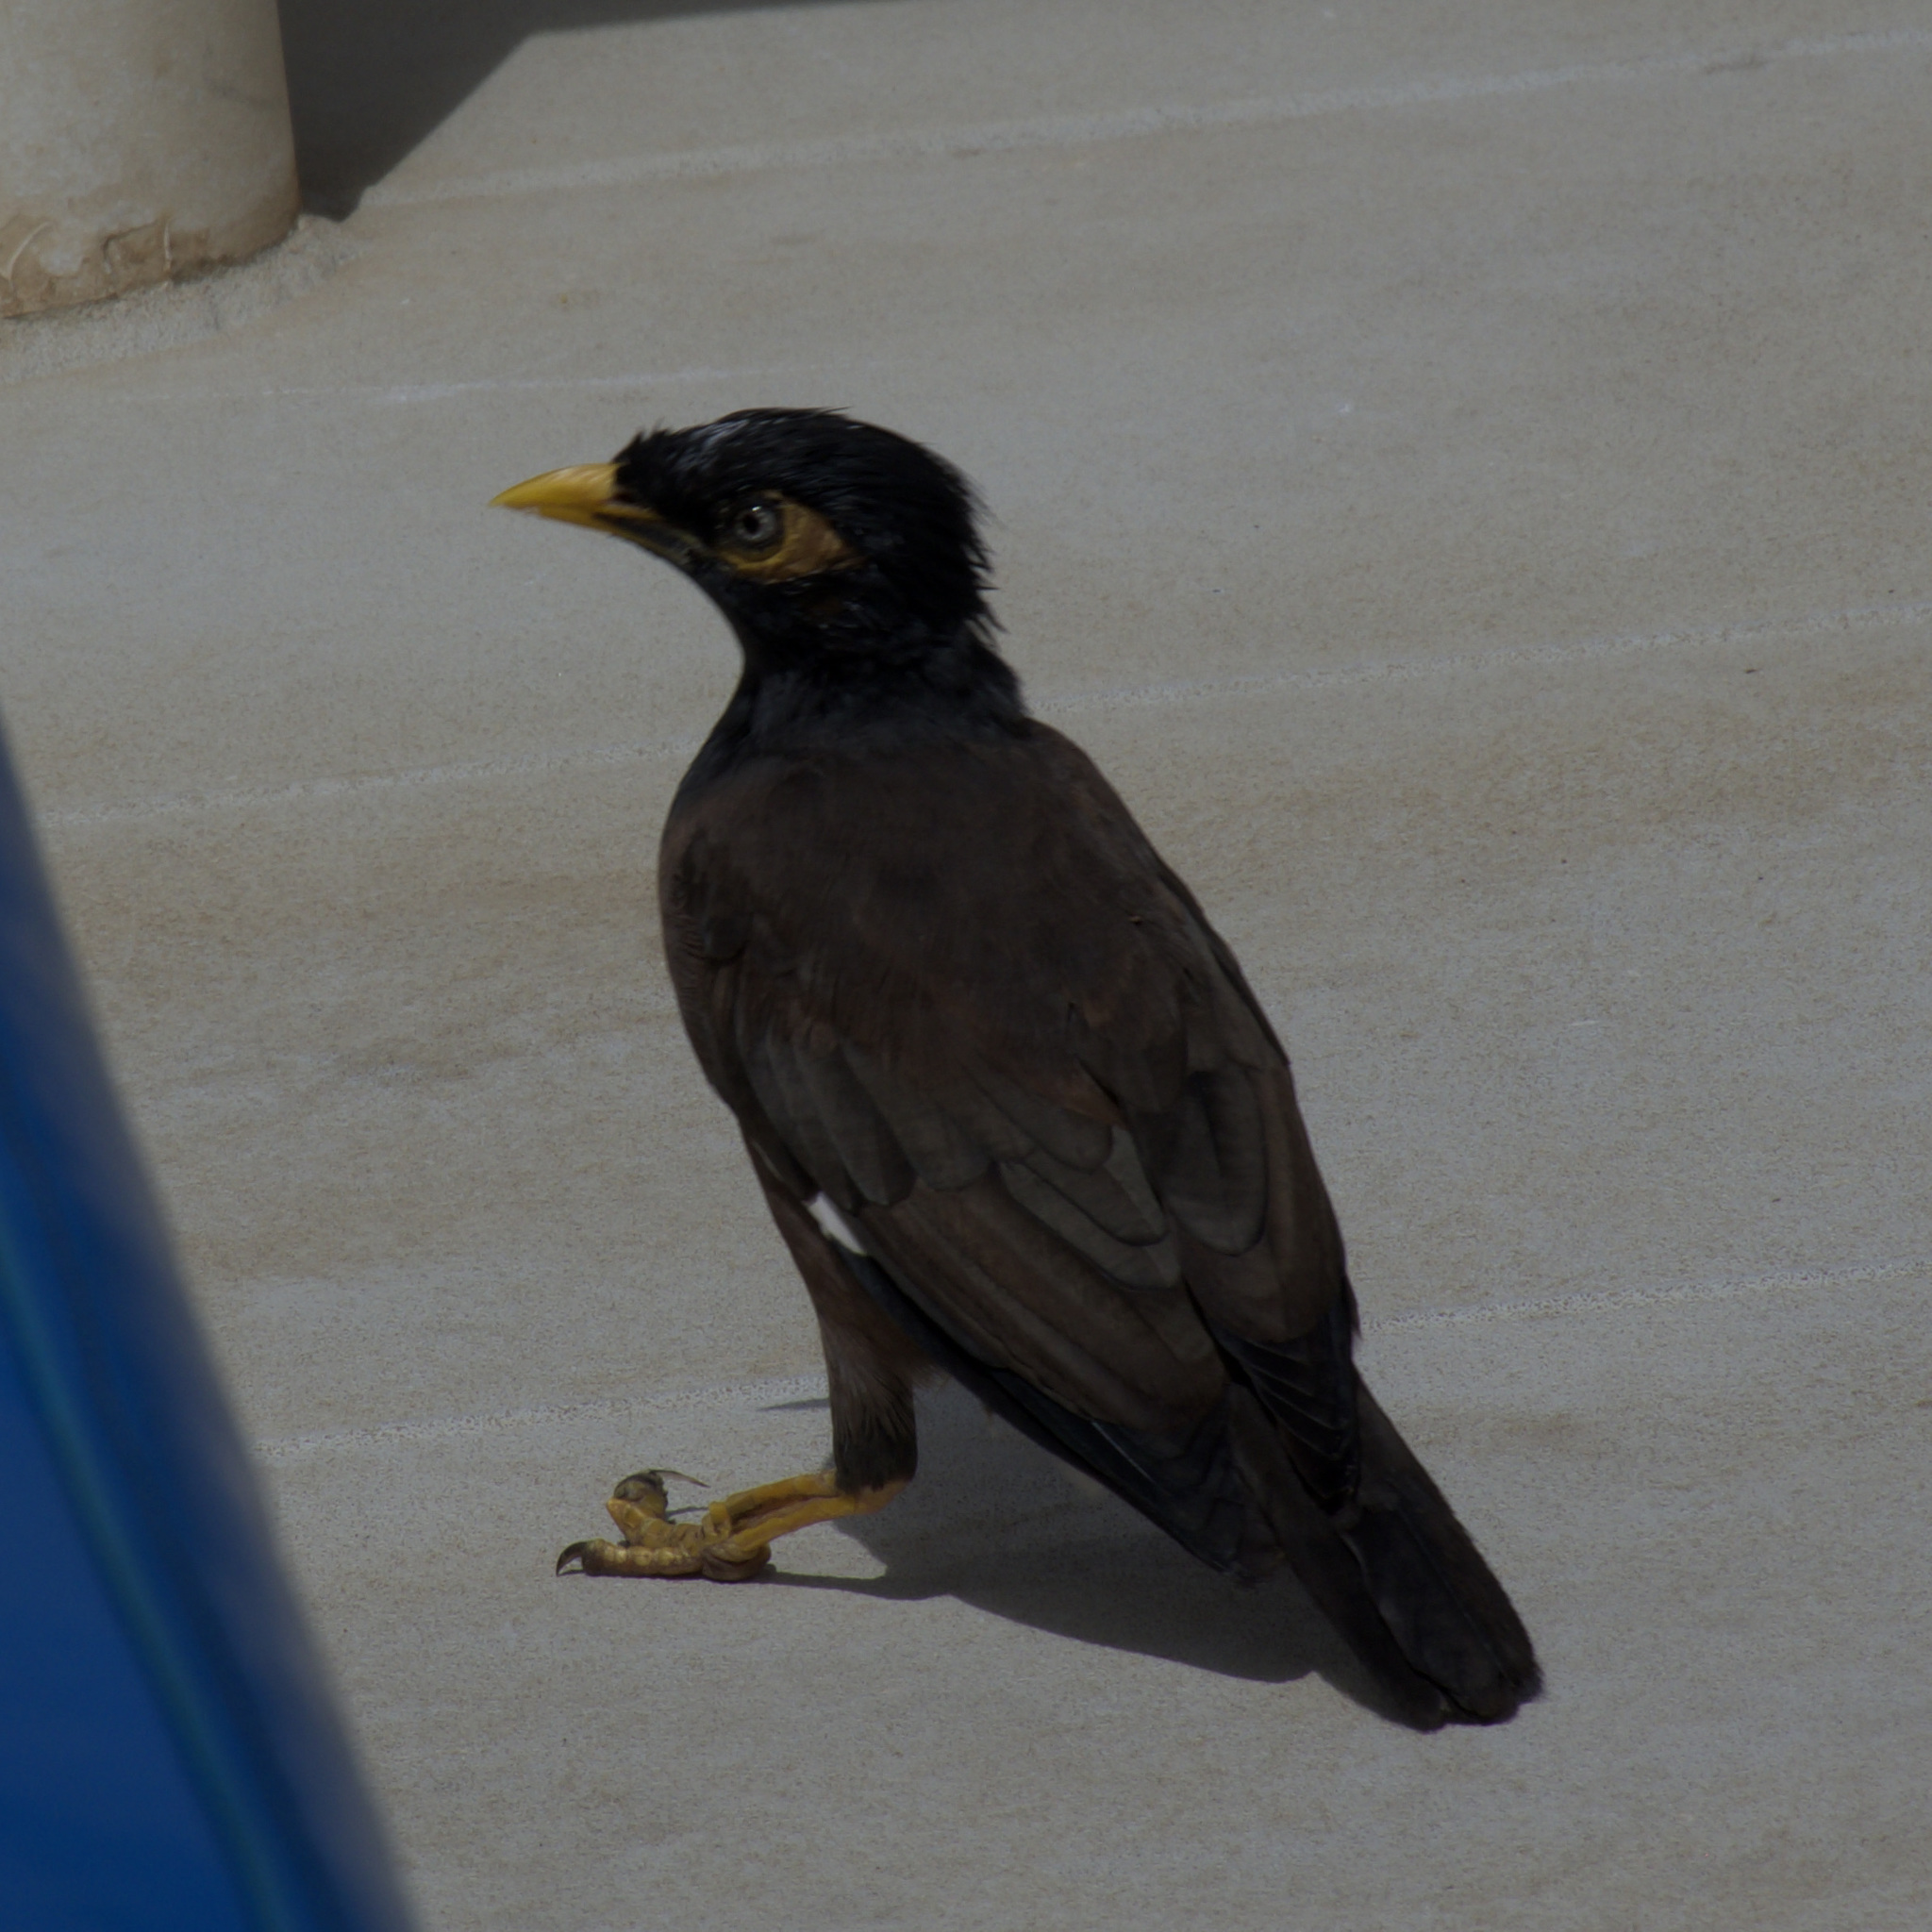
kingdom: Animalia
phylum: Chordata
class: Aves
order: Passeriformes
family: Sturnidae
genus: Acridotheres
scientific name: Acridotheres tristis
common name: Common myna
